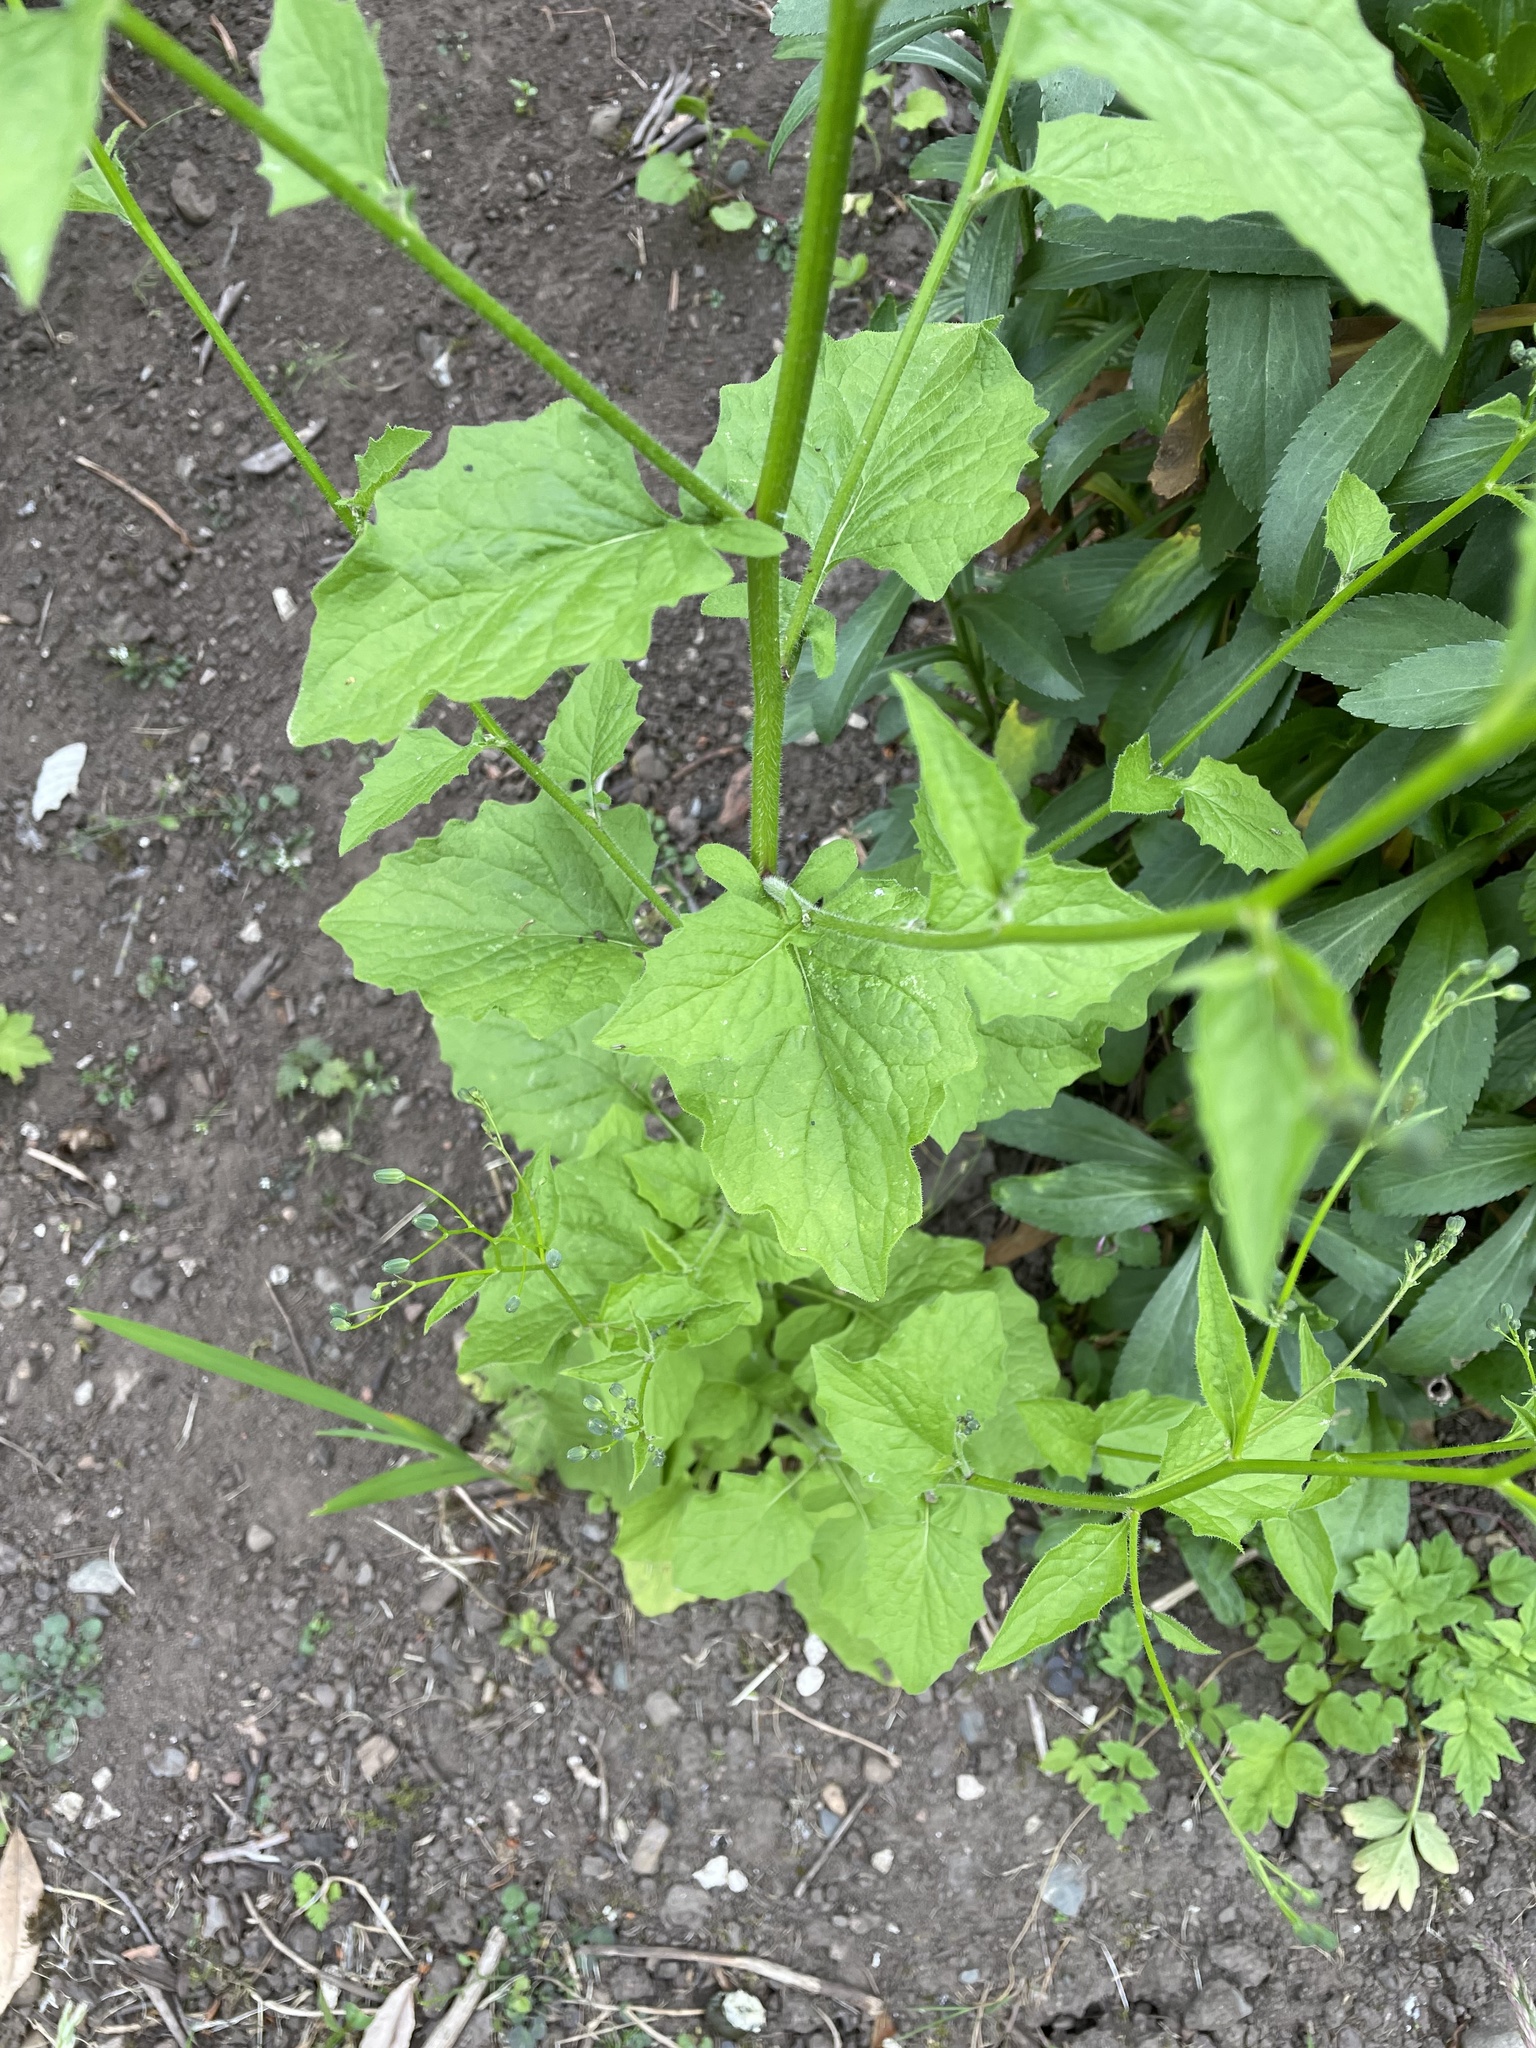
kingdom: Plantae
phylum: Tracheophyta
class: Magnoliopsida
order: Asterales
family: Asteraceae
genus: Lapsana
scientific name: Lapsana communis
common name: Nipplewort
